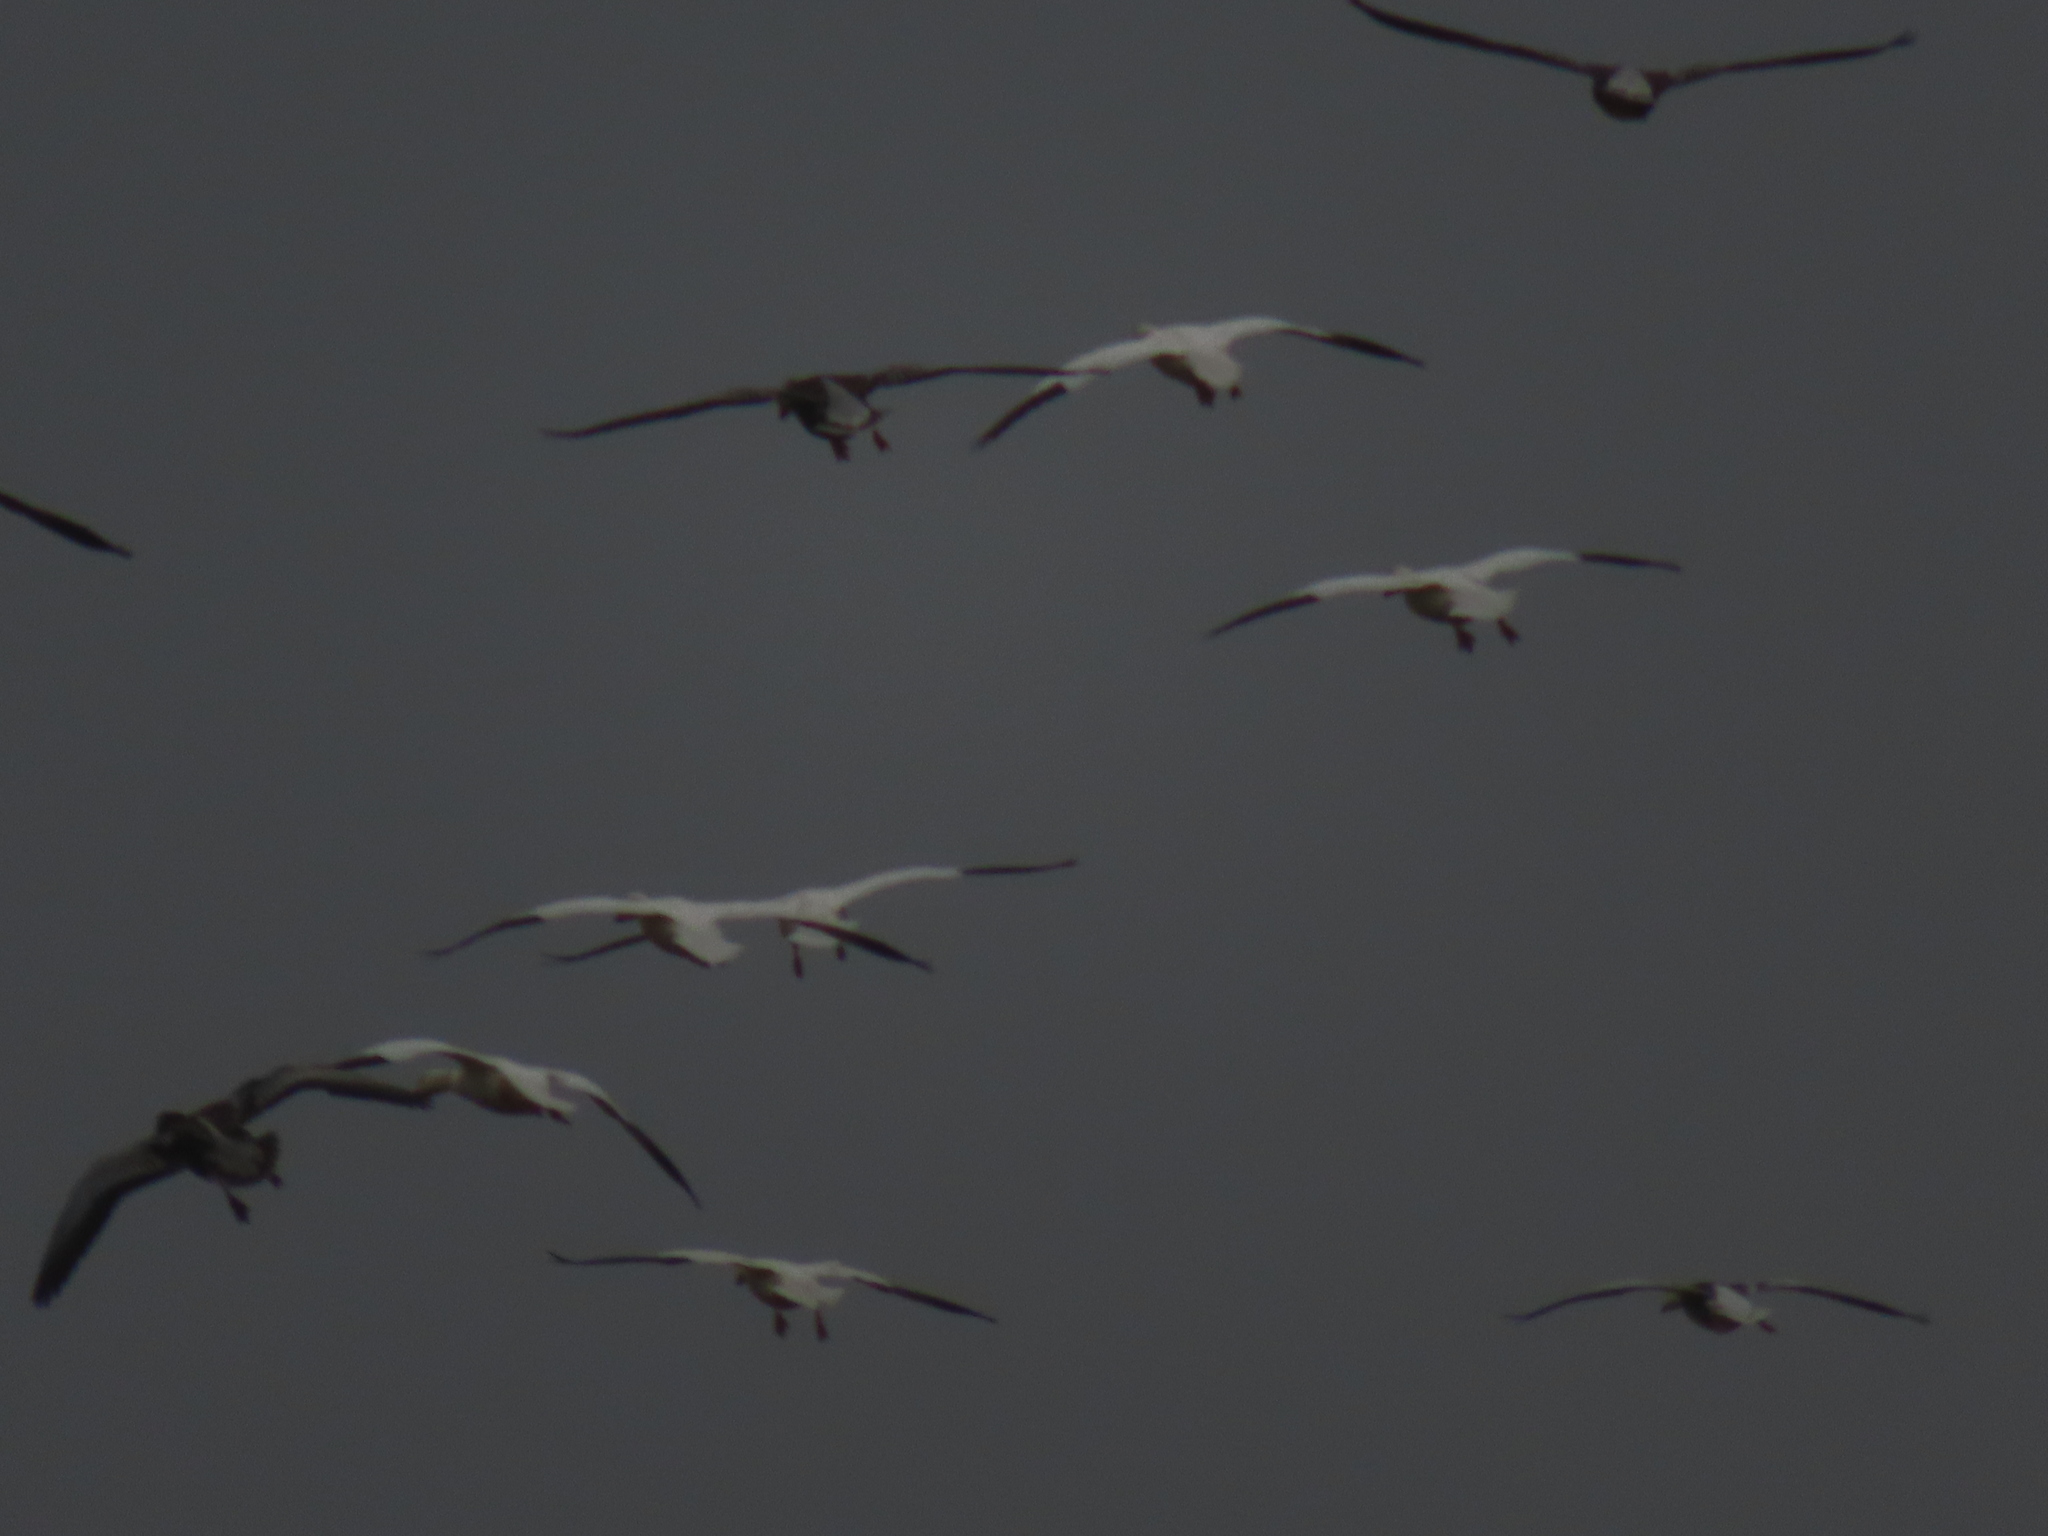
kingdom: Animalia
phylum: Chordata
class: Aves
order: Anseriformes
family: Anatidae
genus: Anser
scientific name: Anser caerulescens
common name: Snow goose
